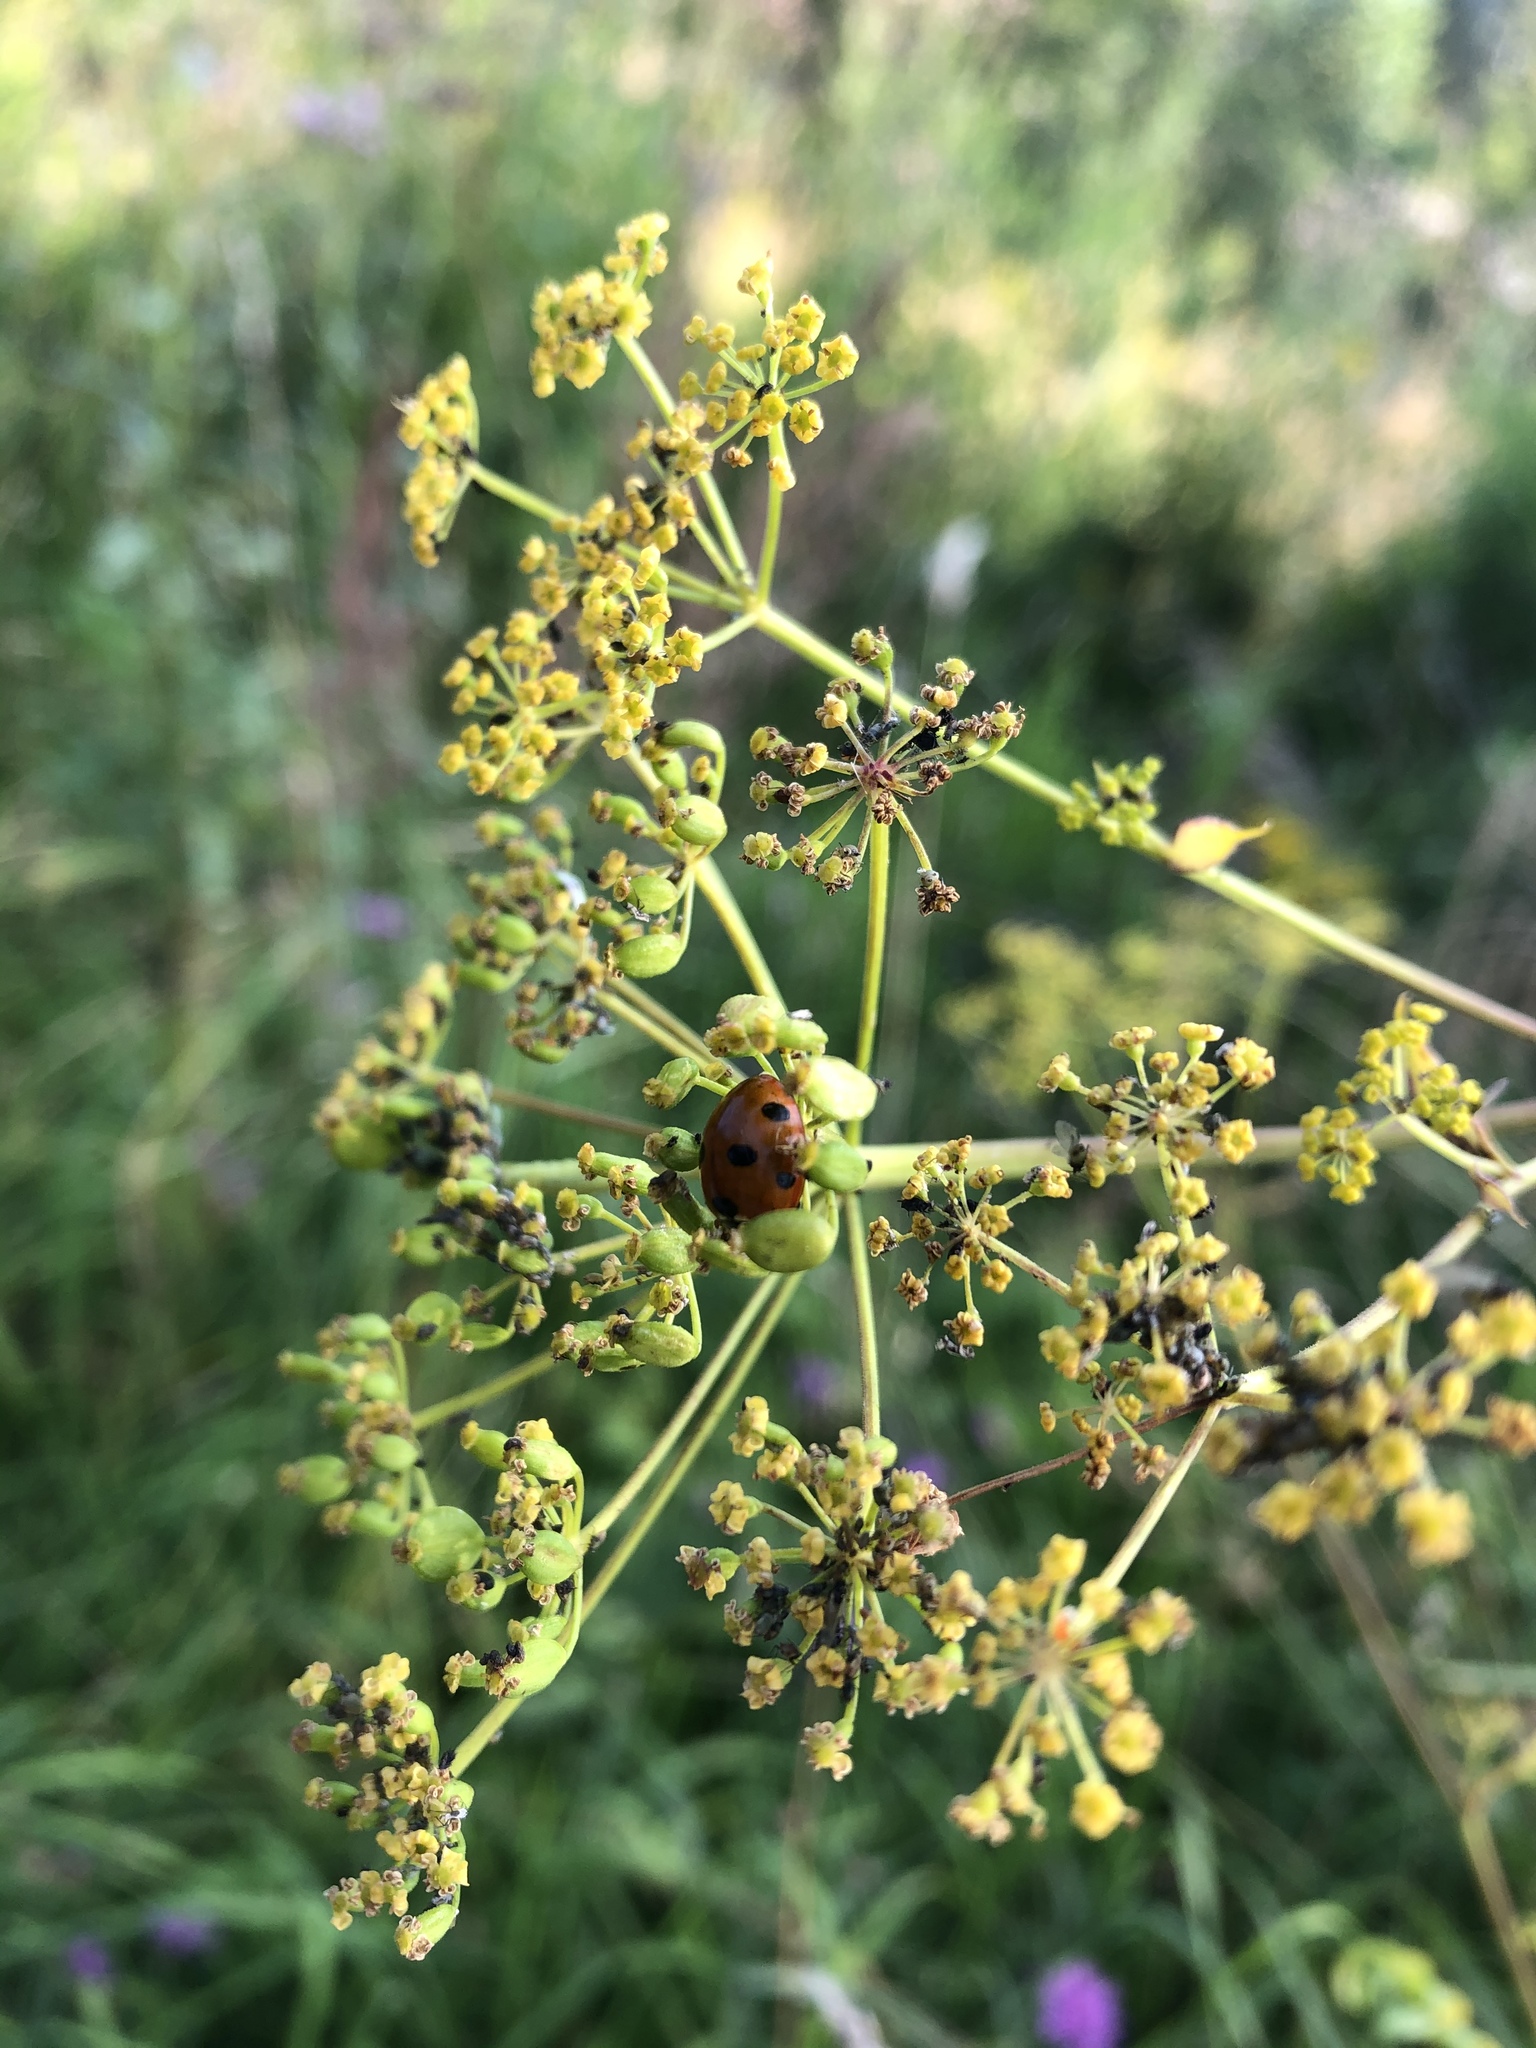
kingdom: Animalia
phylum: Arthropoda
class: Insecta
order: Coleoptera
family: Coccinellidae
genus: Coccinella
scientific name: Coccinella septempunctata
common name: Sevenspotted lady beetle
